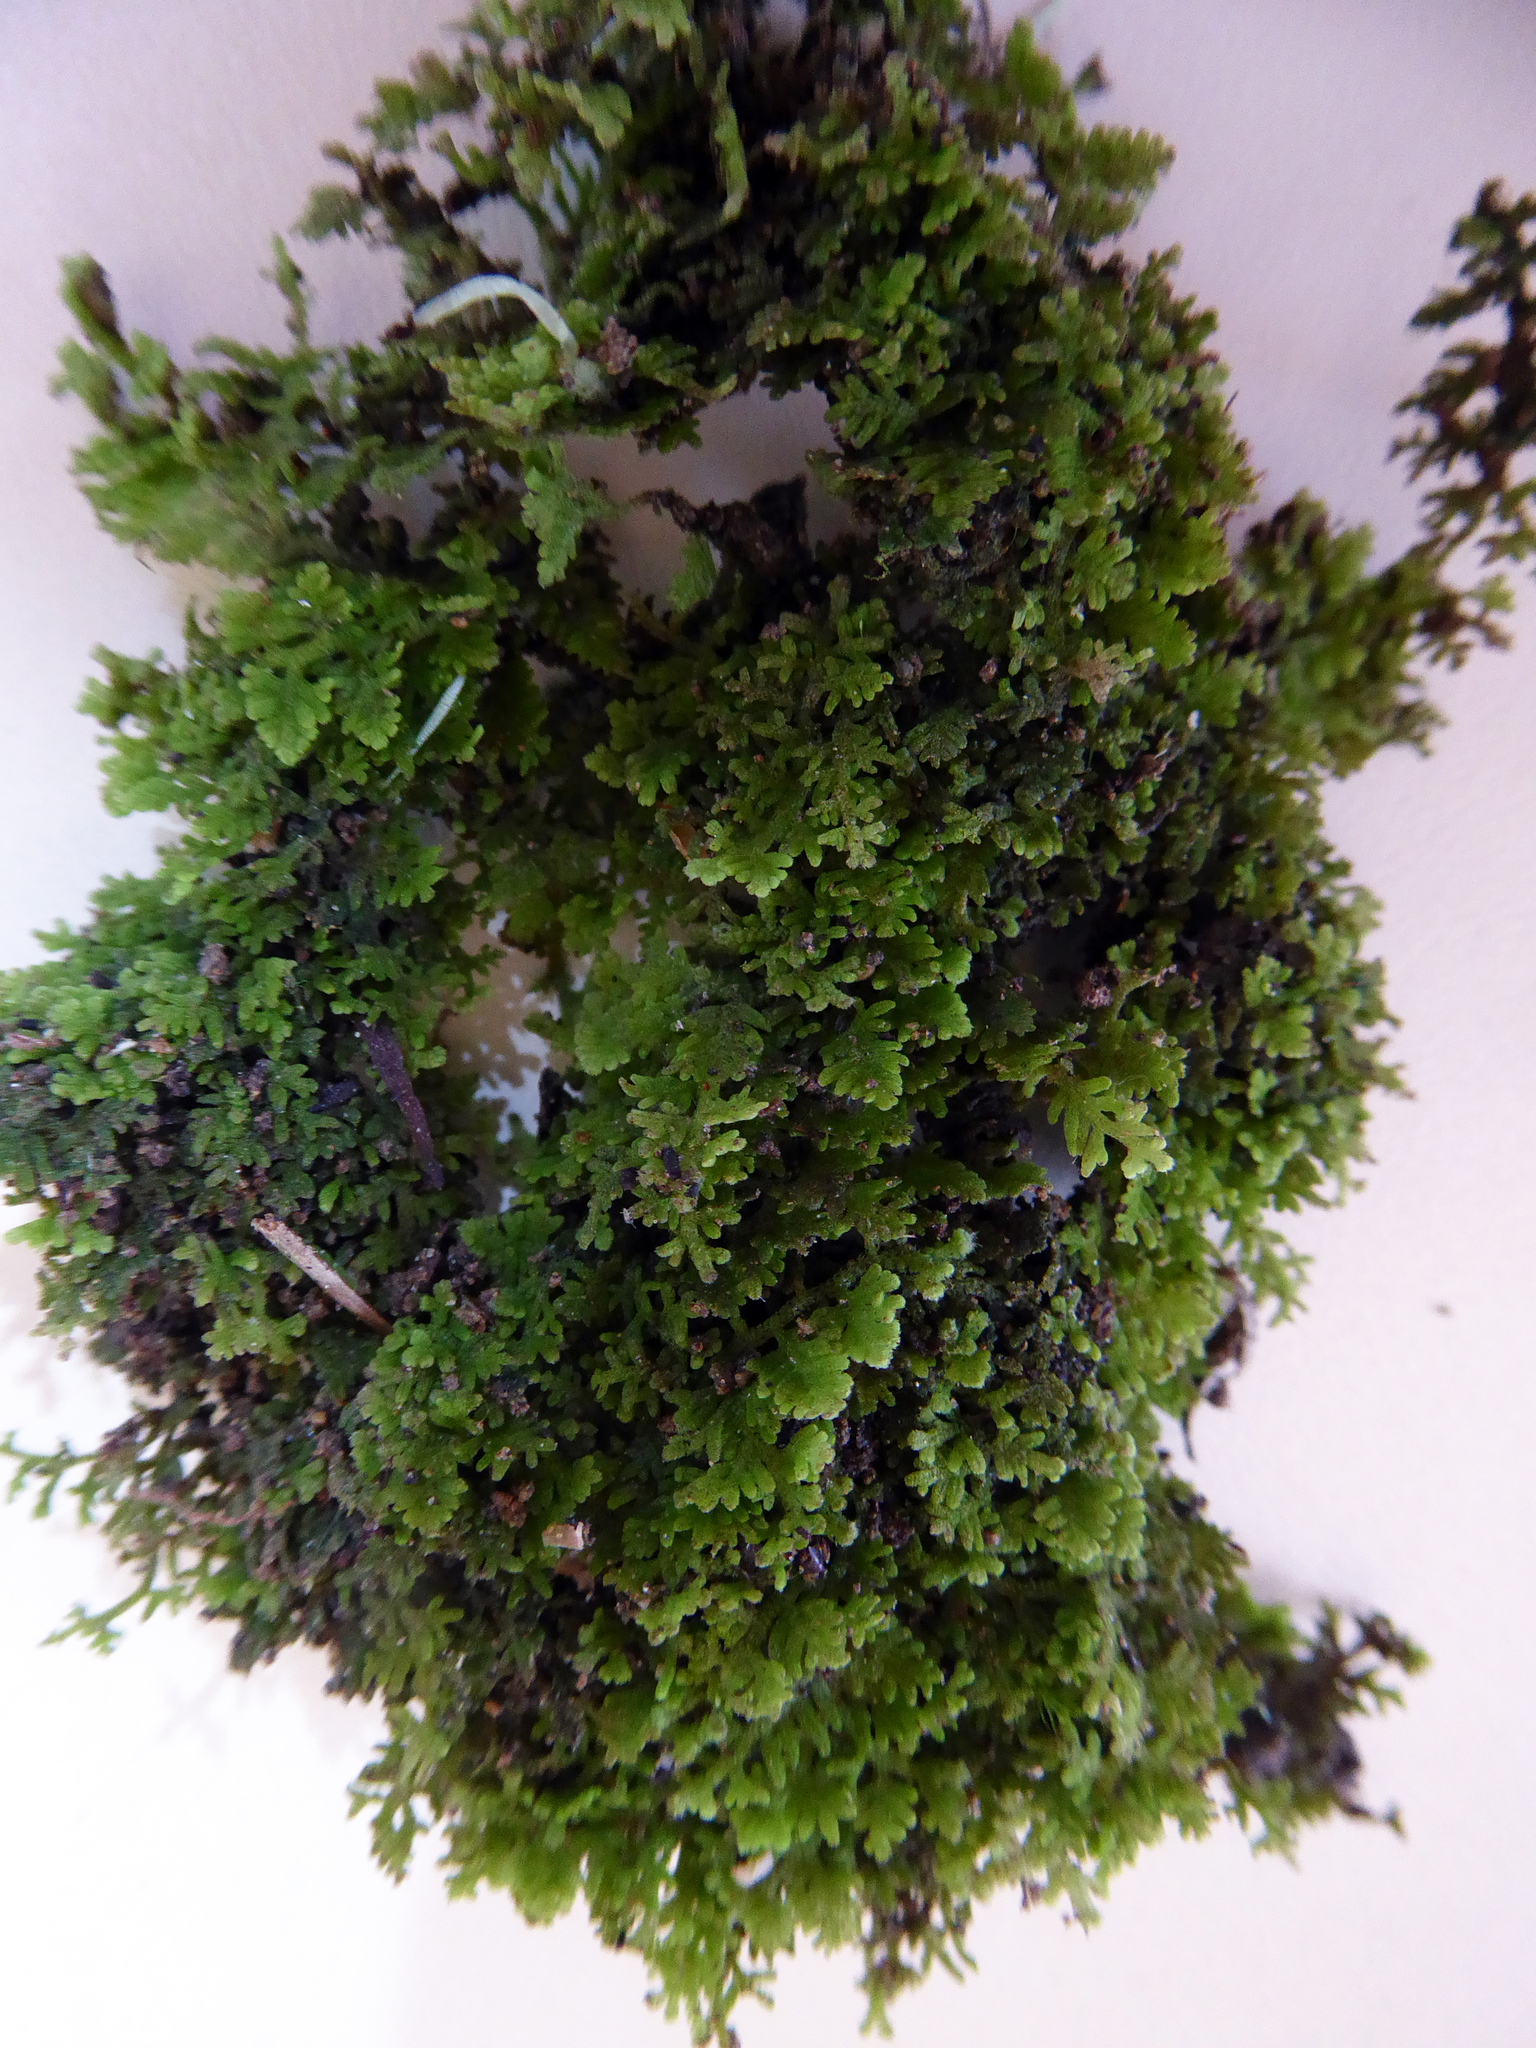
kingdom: Plantae
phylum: Marchantiophyta
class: Jungermanniopsida
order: Jungermanniales
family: Trichocoleaceae
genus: Trichocolea
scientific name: Trichocolea hatcheri
